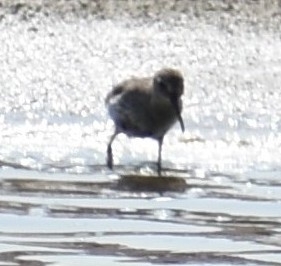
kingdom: Animalia
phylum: Chordata
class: Aves
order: Charadriiformes
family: Scolopacidae
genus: Calidris
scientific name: Calidris alpina
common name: Dunlin
